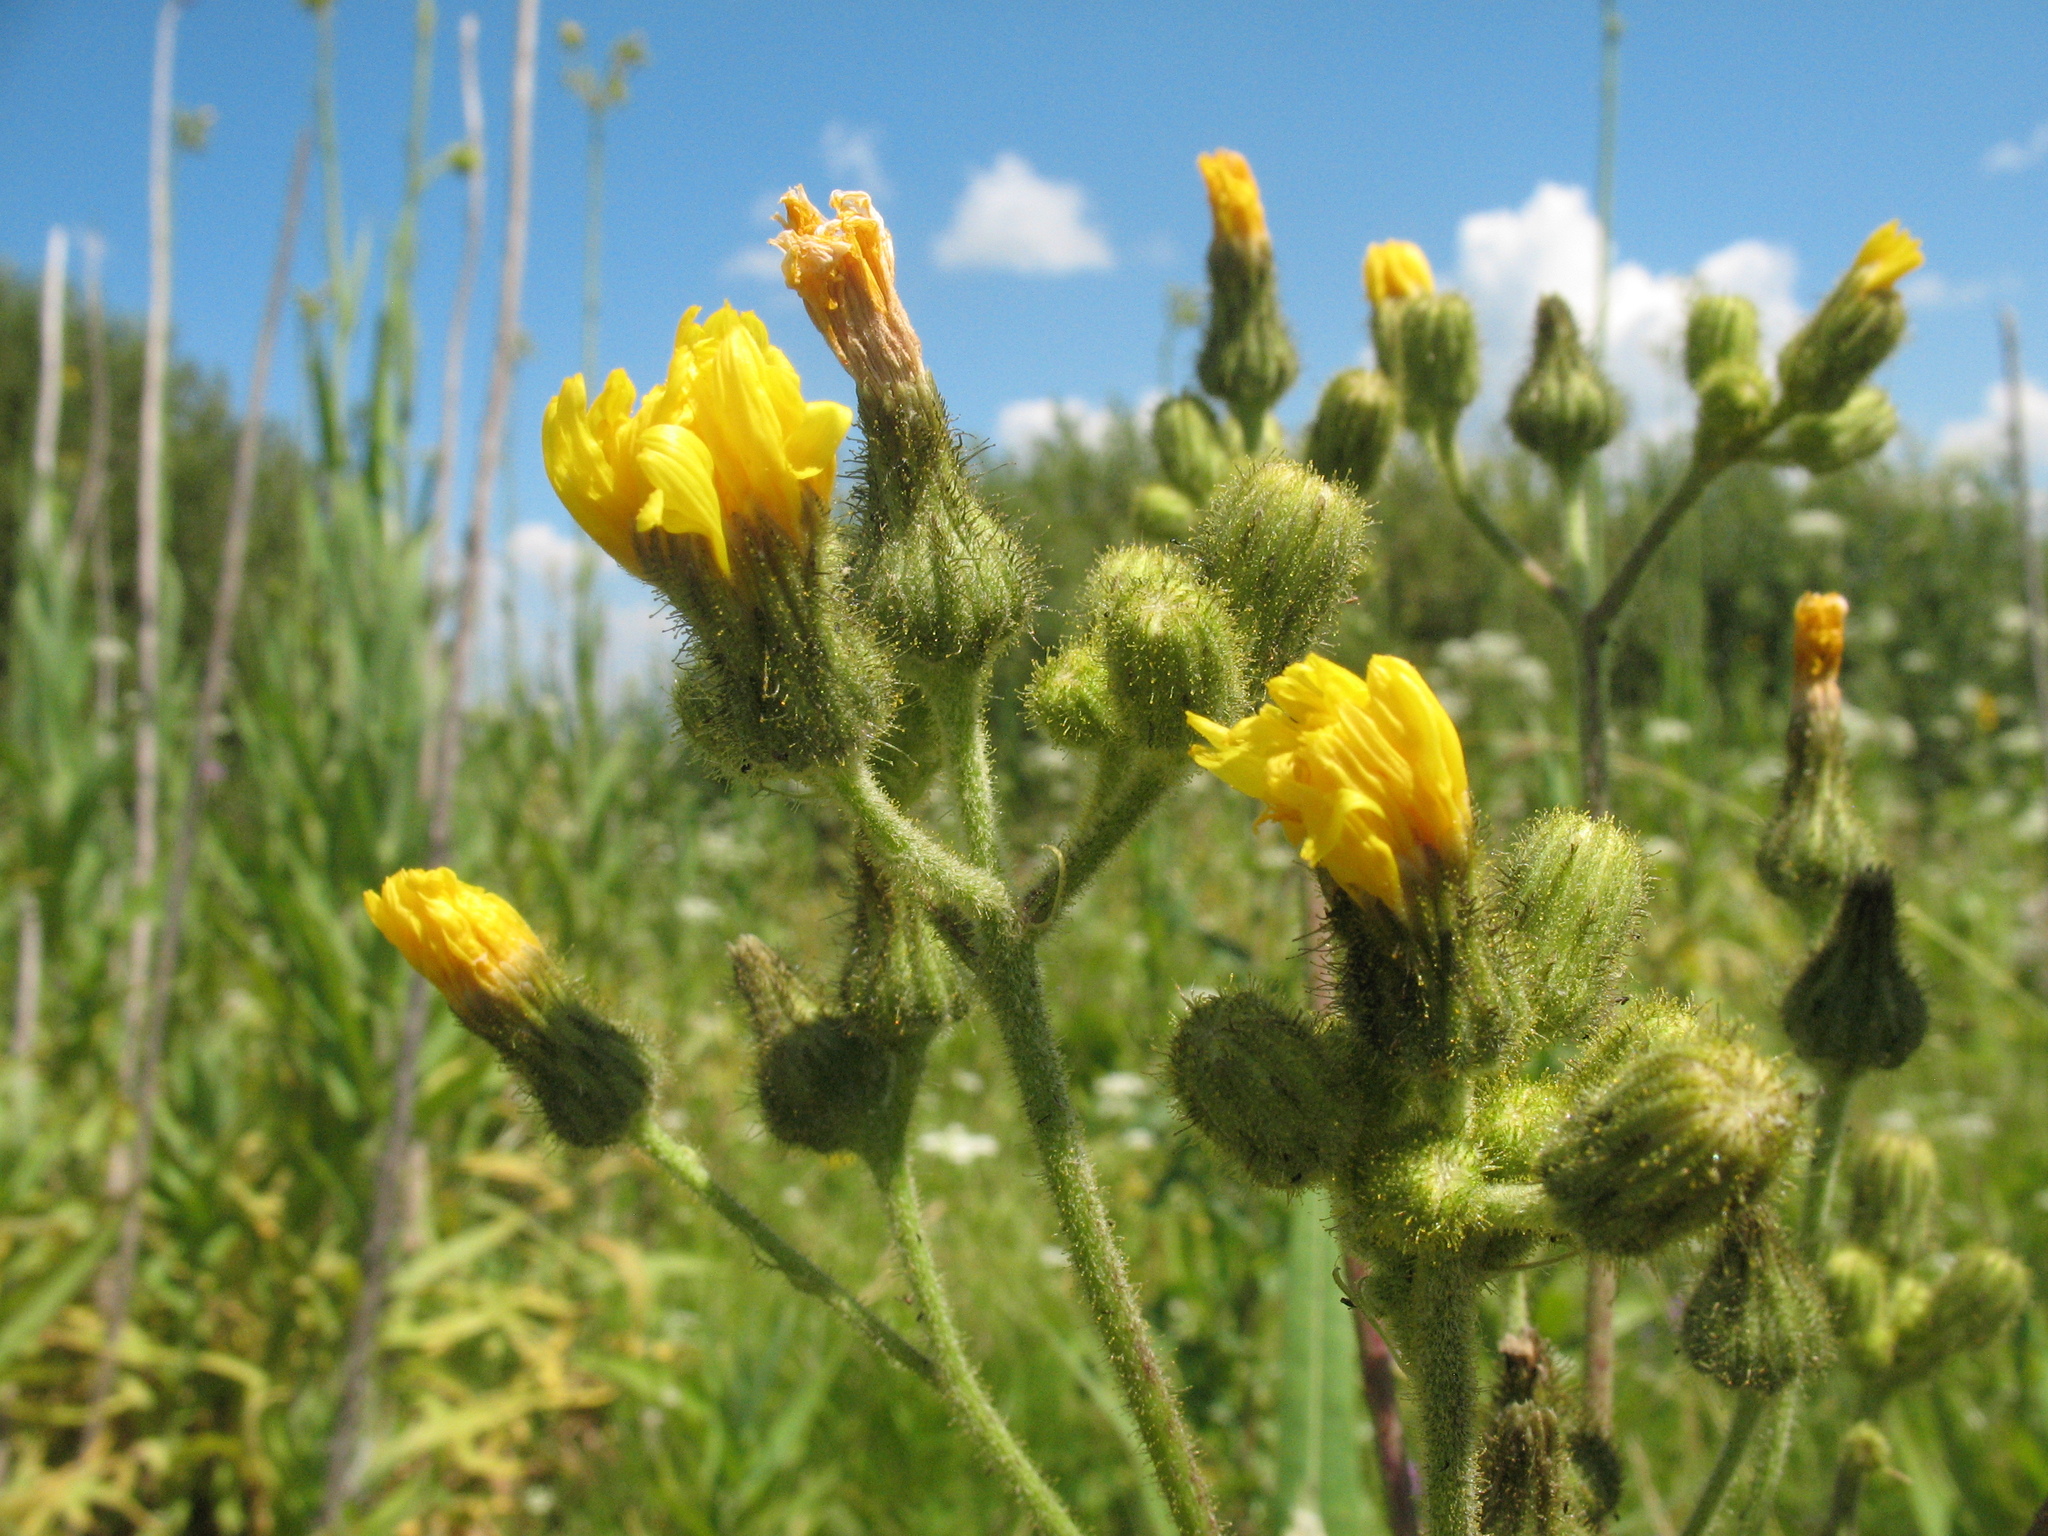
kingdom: Plantae
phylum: Tracheophyta
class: Magnoliopsida
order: Asterales
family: Asteraceae
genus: Sonchus
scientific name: Sonchus palustris
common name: Marsh sow-thistle
